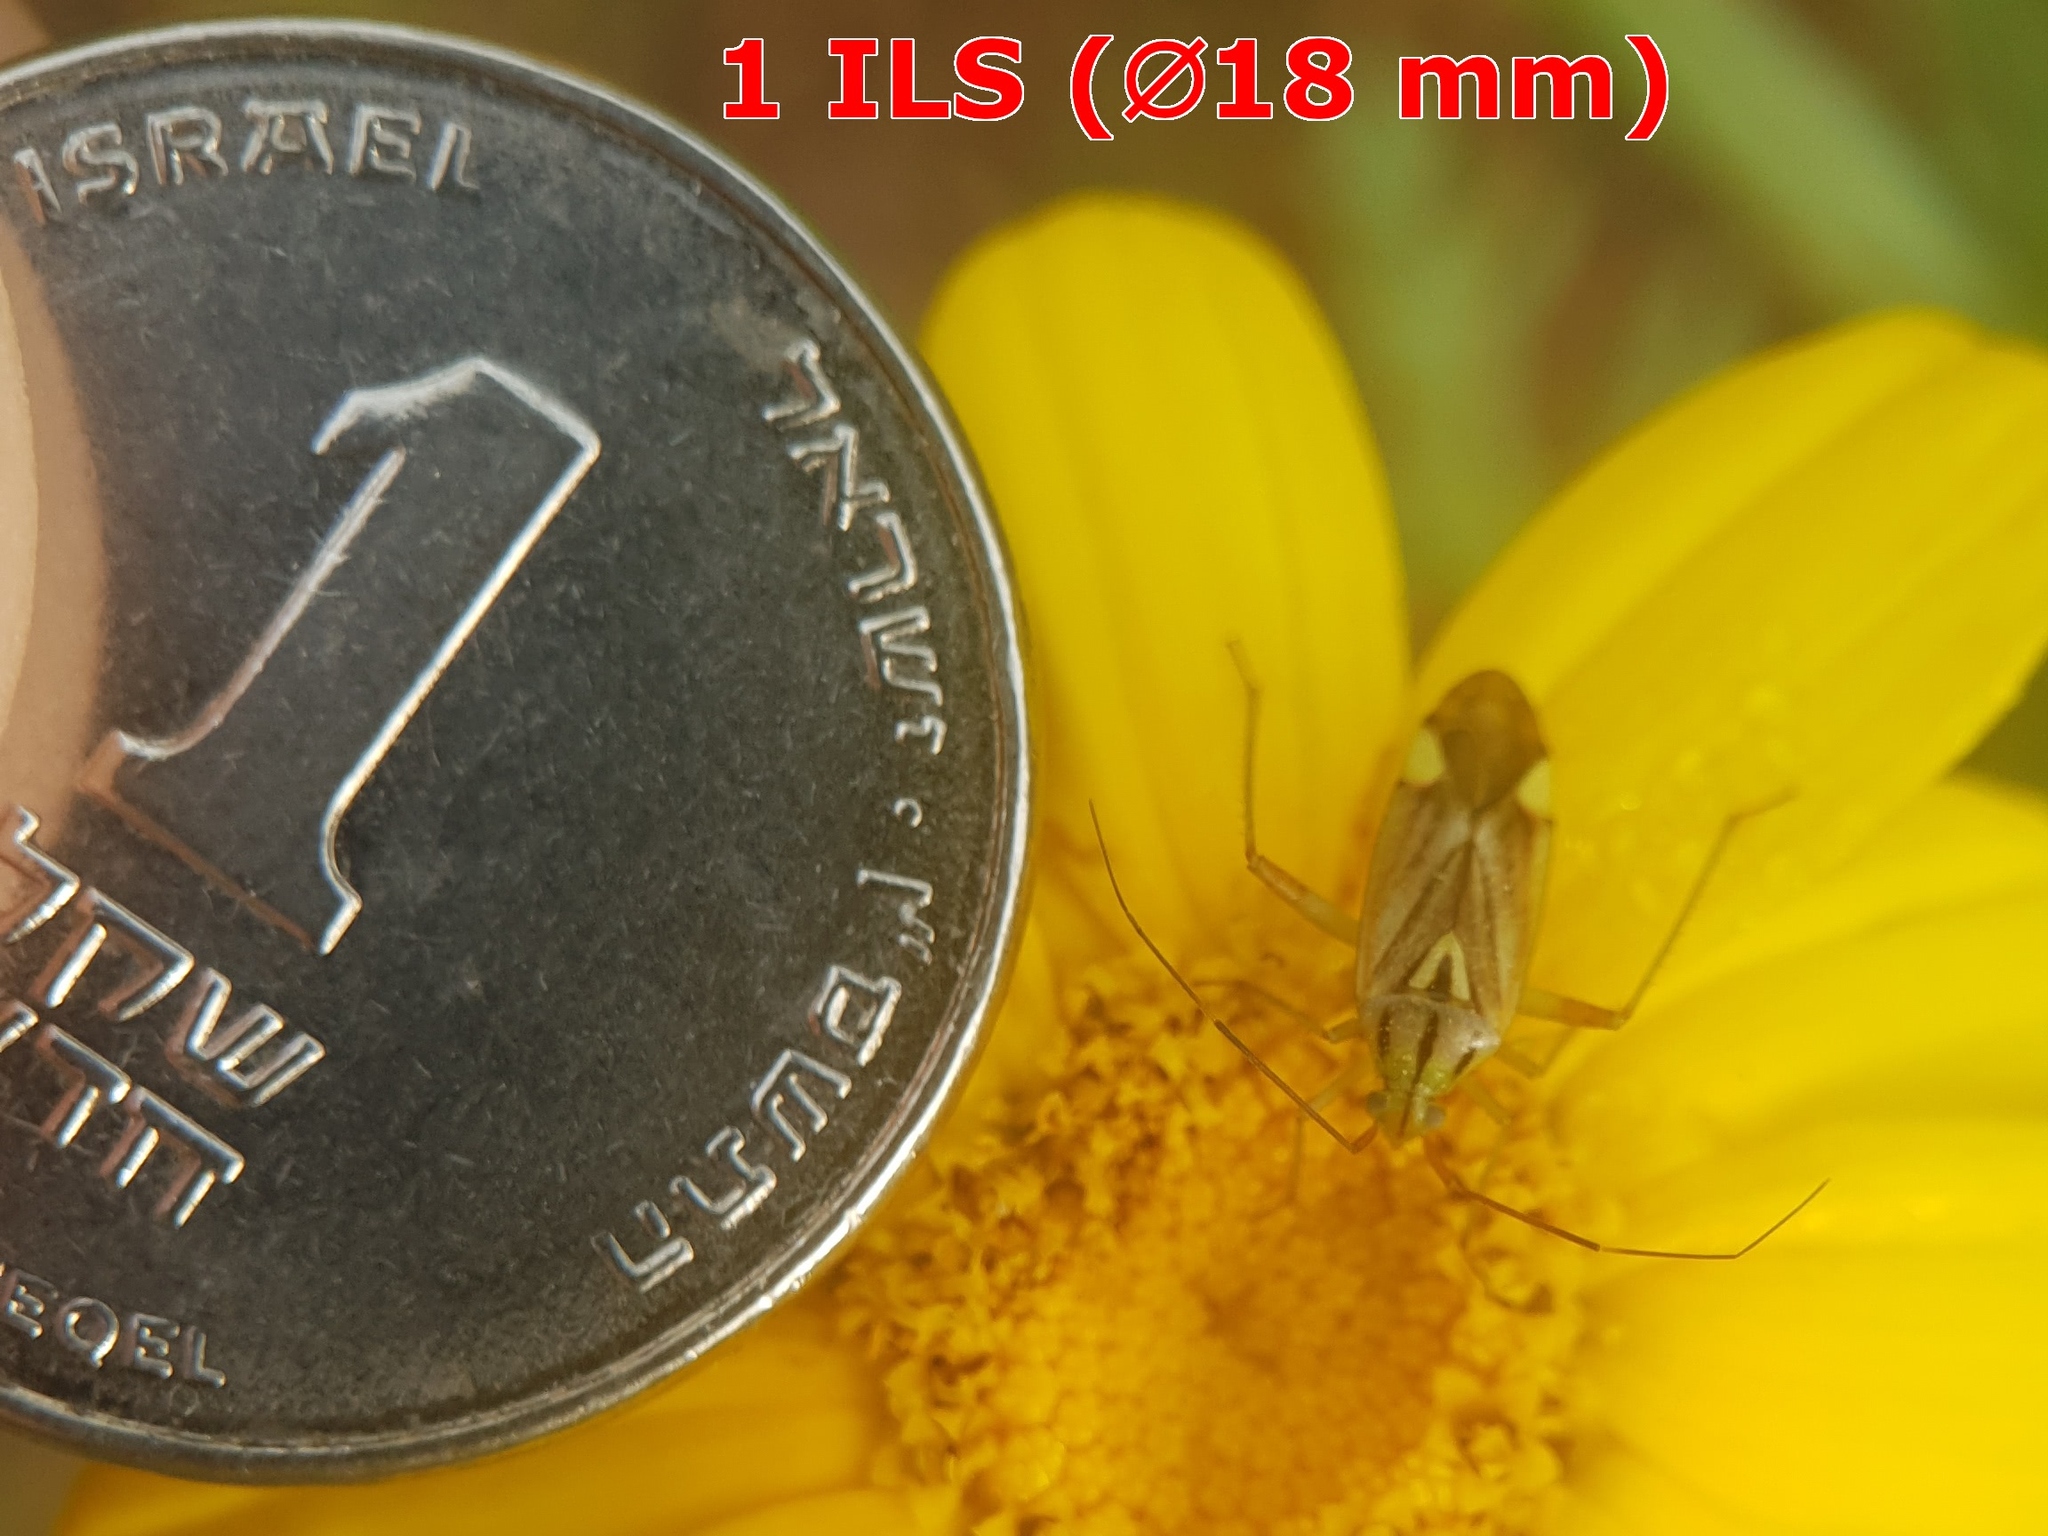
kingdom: Animalia
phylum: Arthropoda
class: Insecta
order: Hemiptera
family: Miridae
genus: Closterotomus
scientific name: Closterotomus putoni
